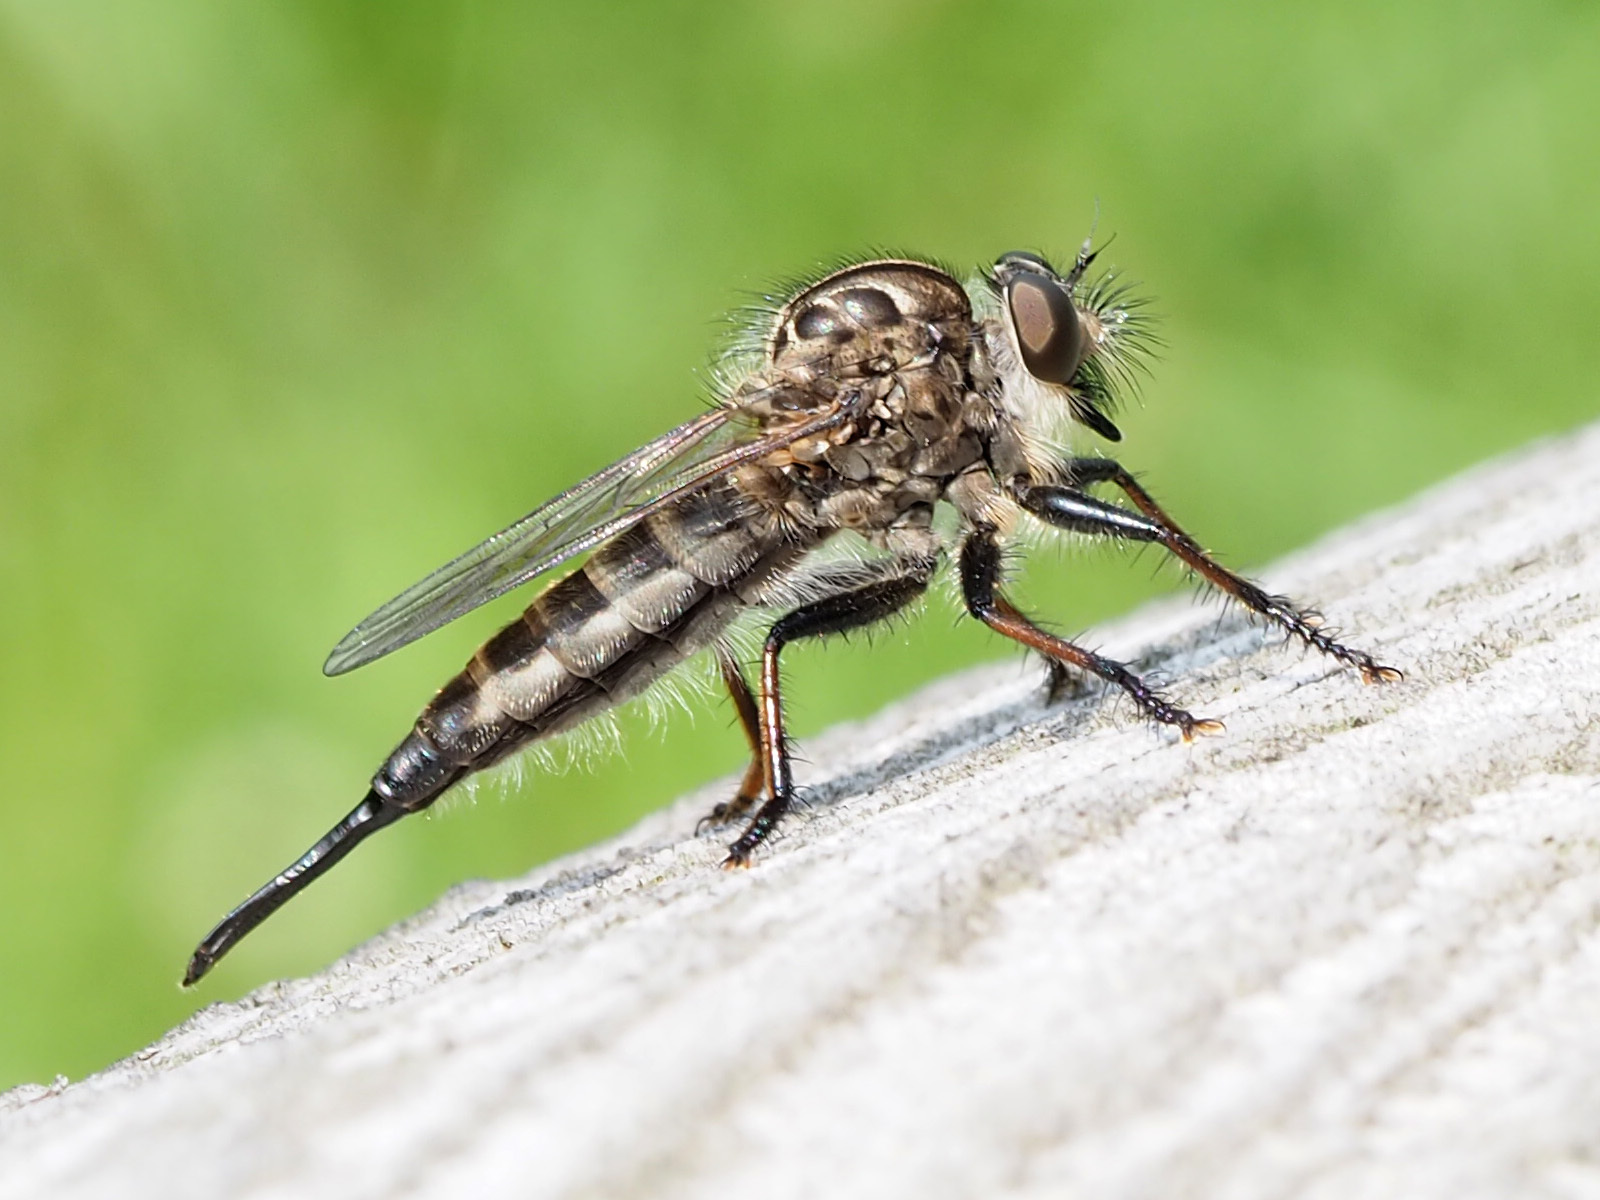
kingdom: Animalia
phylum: Arthropoda
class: Insecta
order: Diptera
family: Asilidae
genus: Efferia
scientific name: Efferia aestuans
